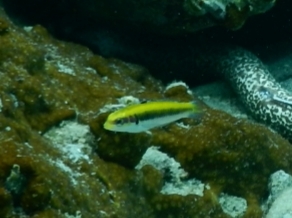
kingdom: Animalia
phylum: Chordata
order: Perciformes
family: Labridae
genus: Thalassoma
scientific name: Thalassoma bifasciatum
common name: Bluehead wrasse
